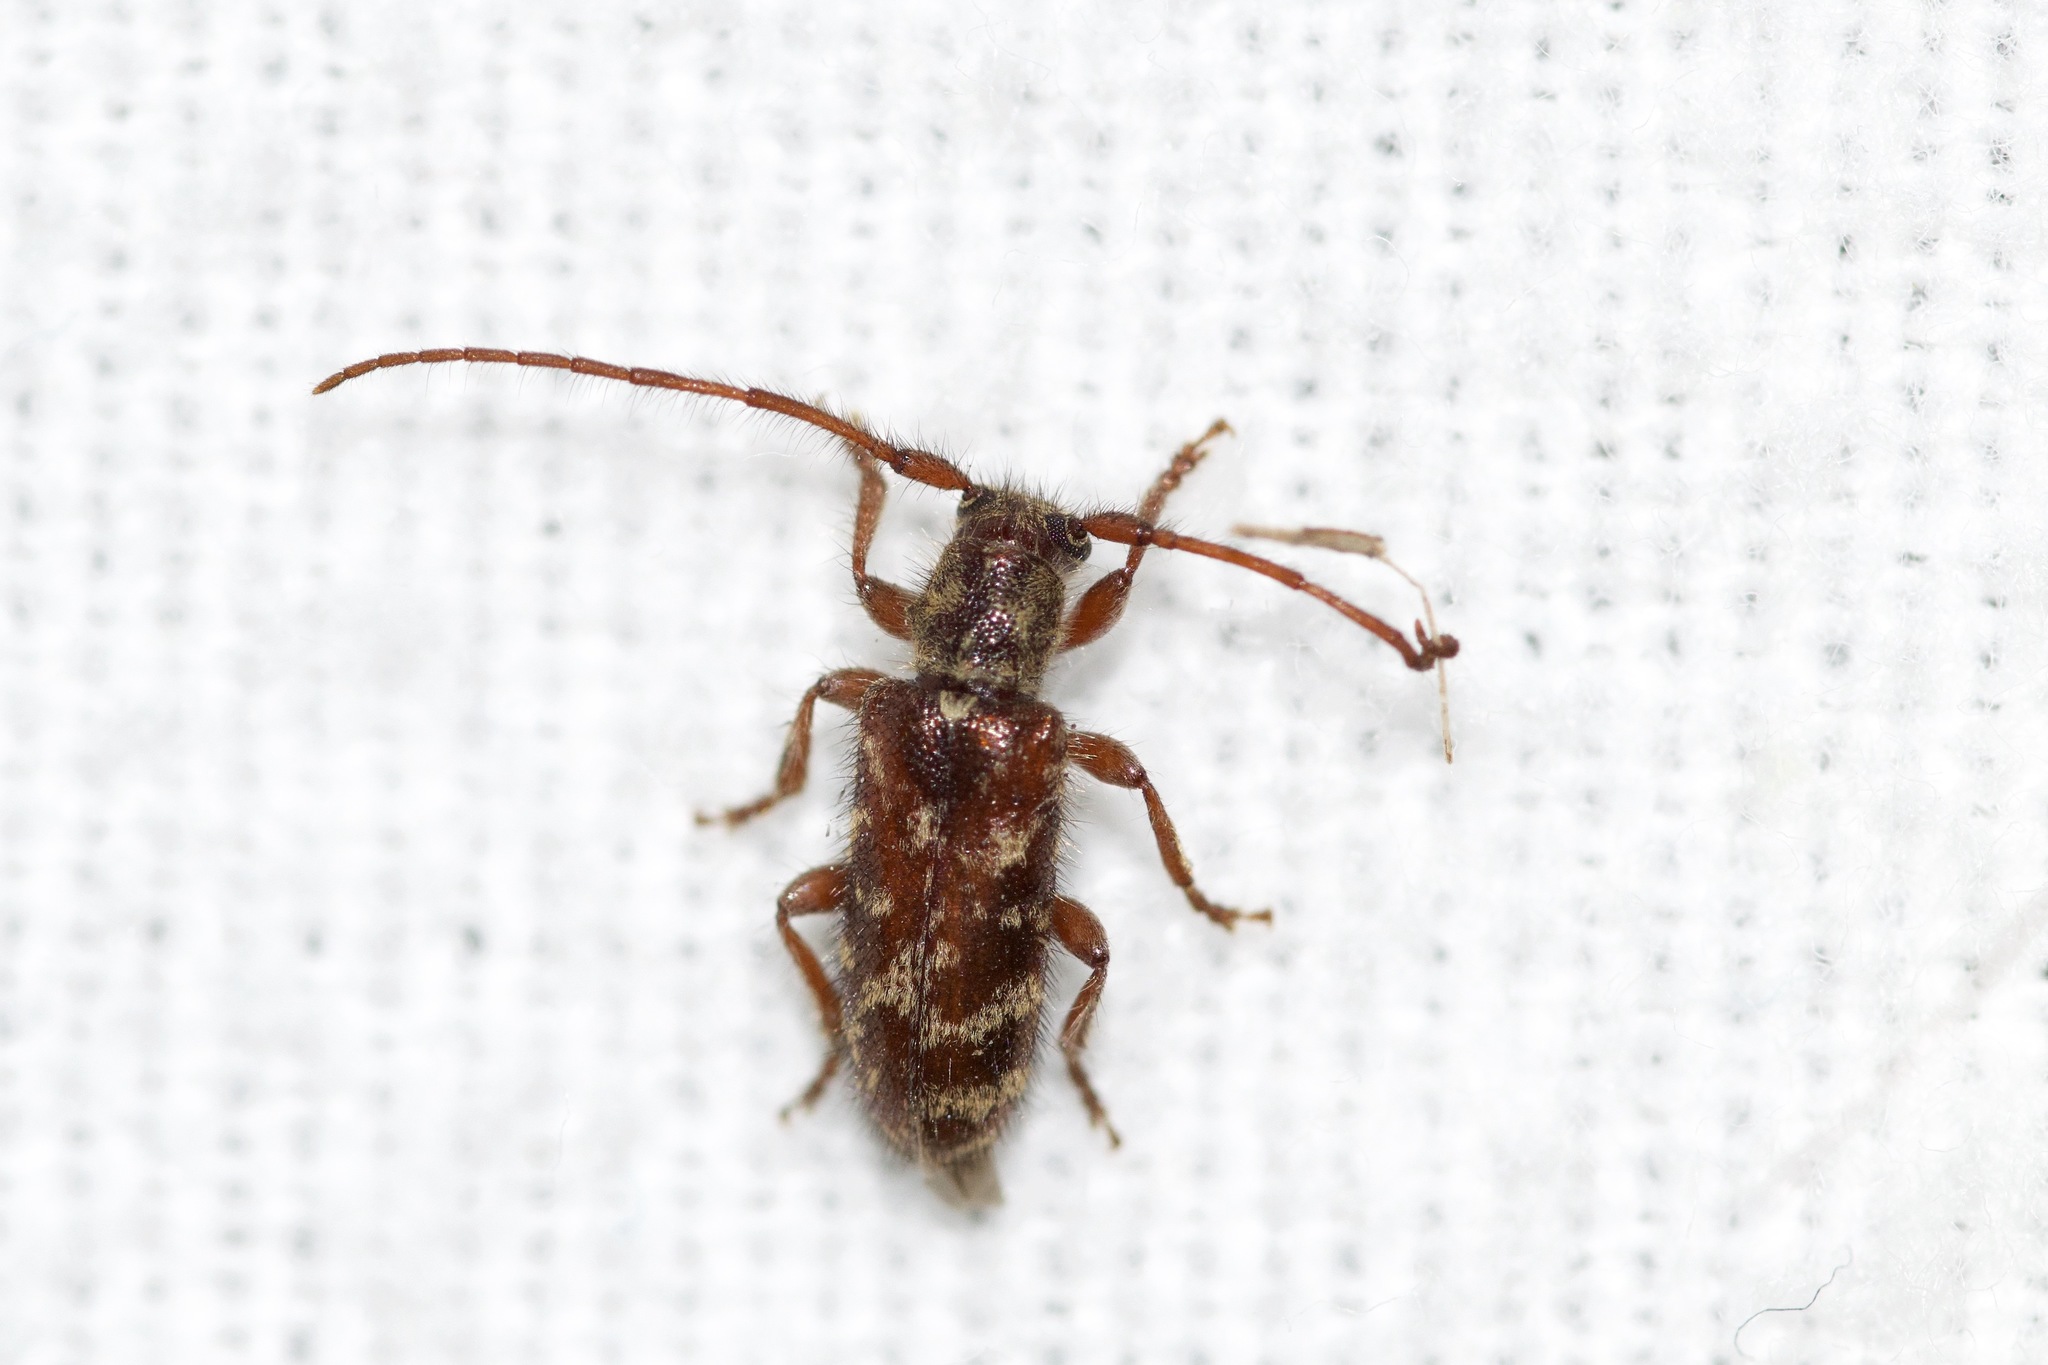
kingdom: Animalia
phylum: Arthropoda
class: Insecta
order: Coleoptera
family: Cerambycidae
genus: Eupogonius
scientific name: Eupogonius tomentosus
